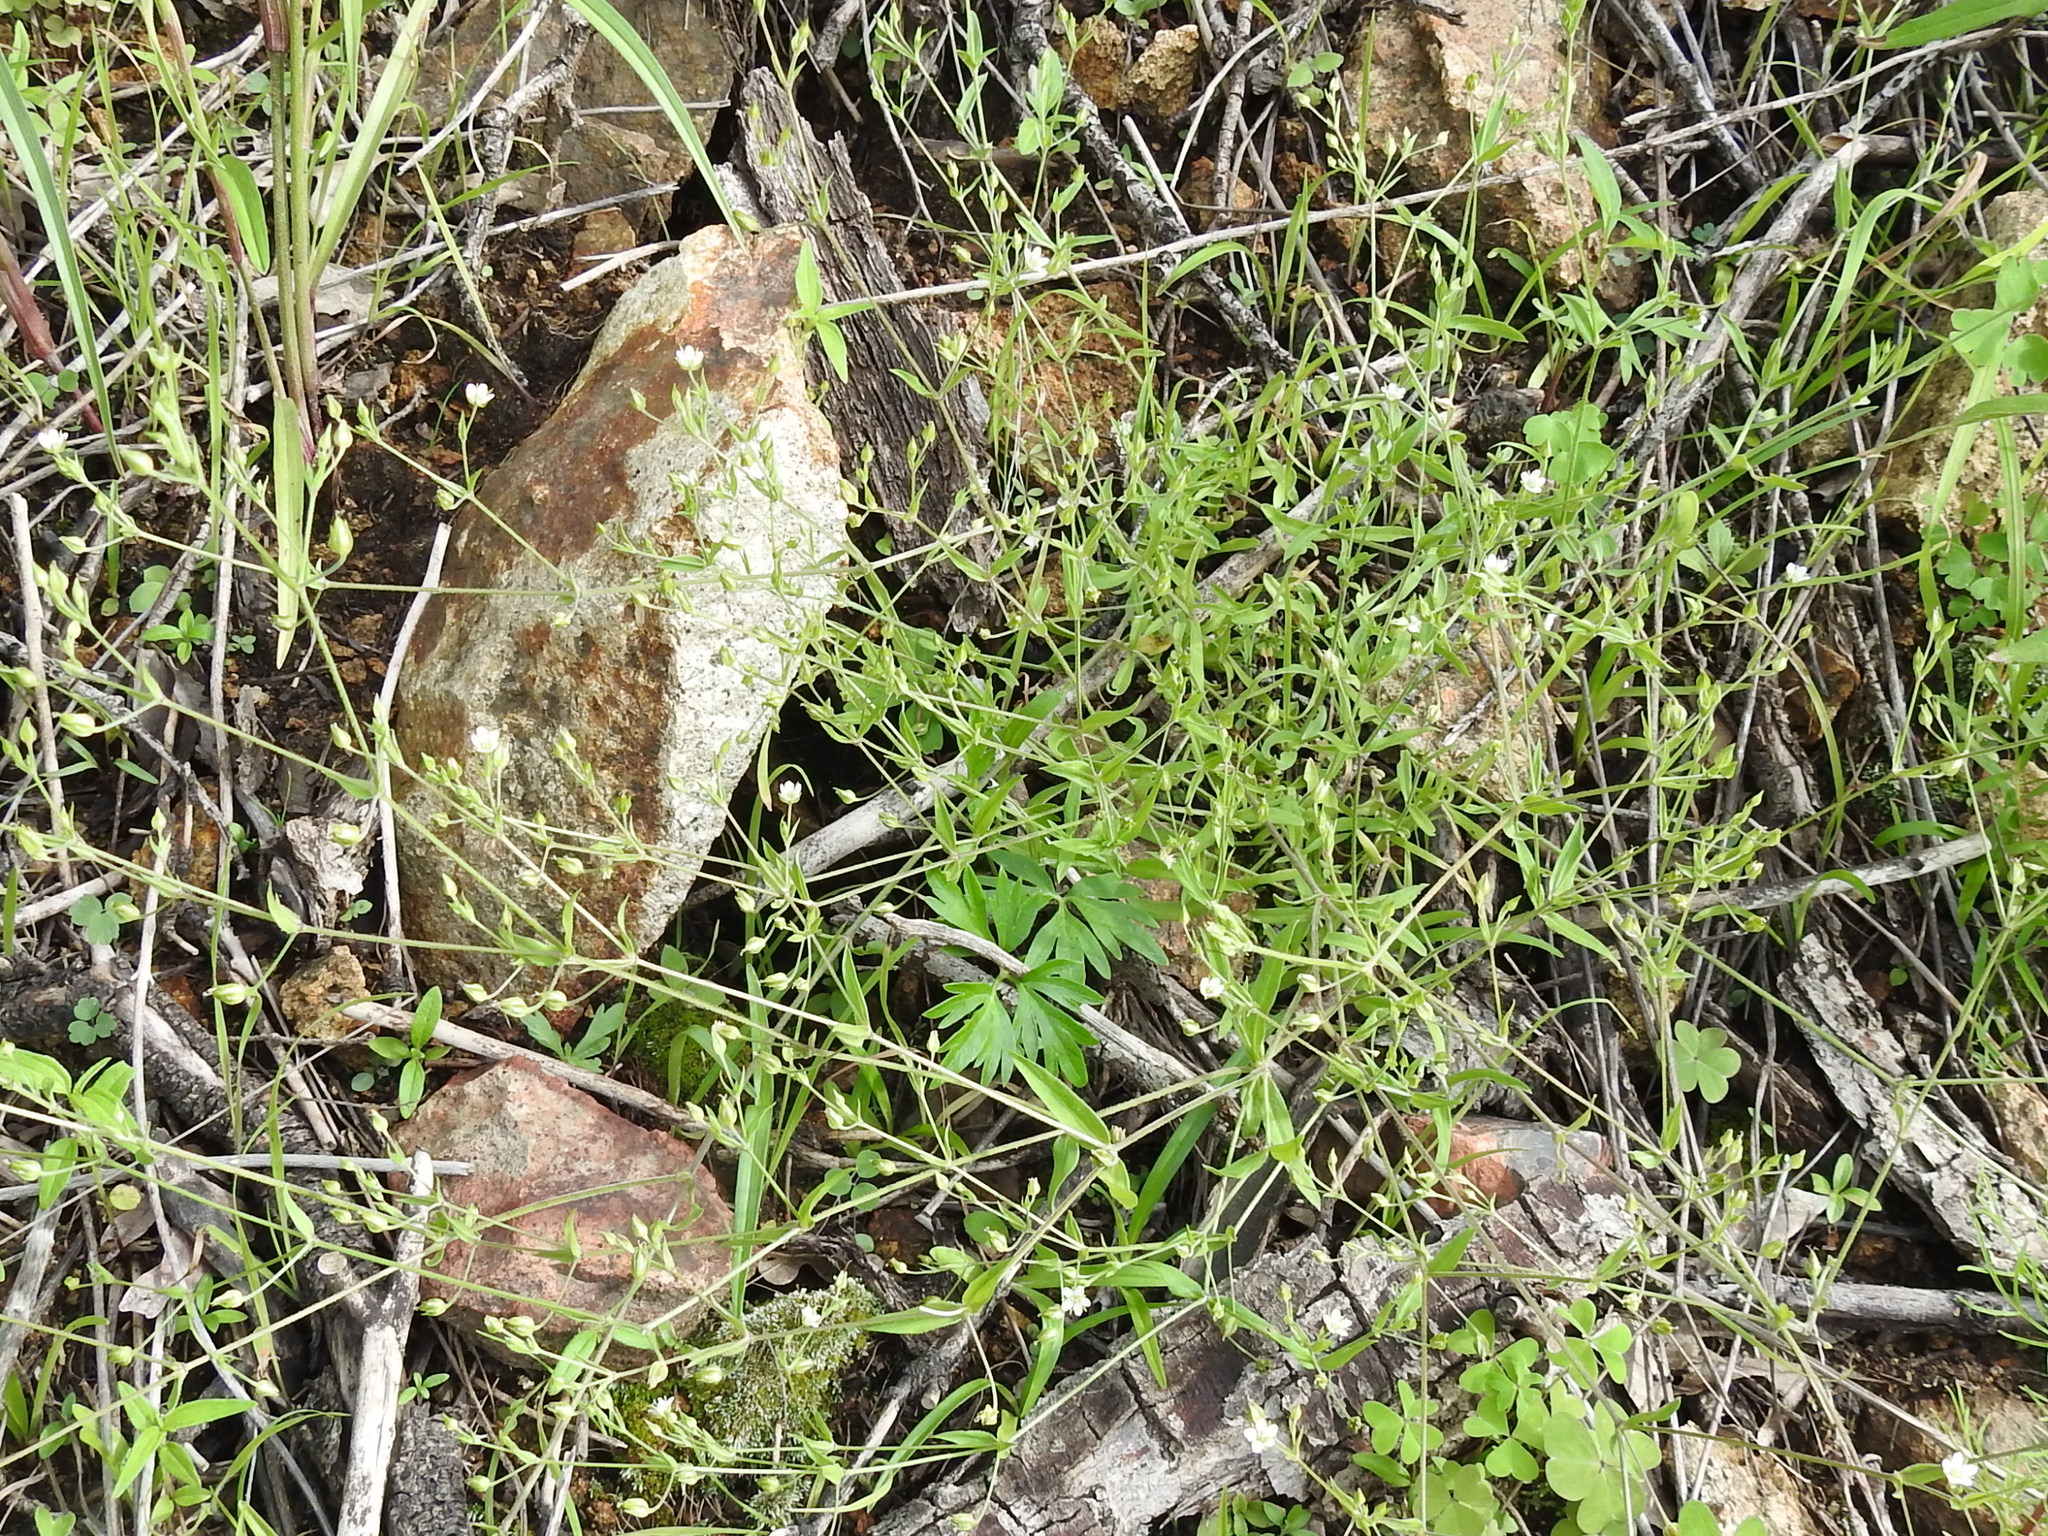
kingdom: Plantae
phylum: Tracheophyta
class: Magnoliopsida
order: Caryophyllales
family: Caryophyllaceae
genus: Arenaria
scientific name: Arenaria lanuginosa
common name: Spread sandwort
